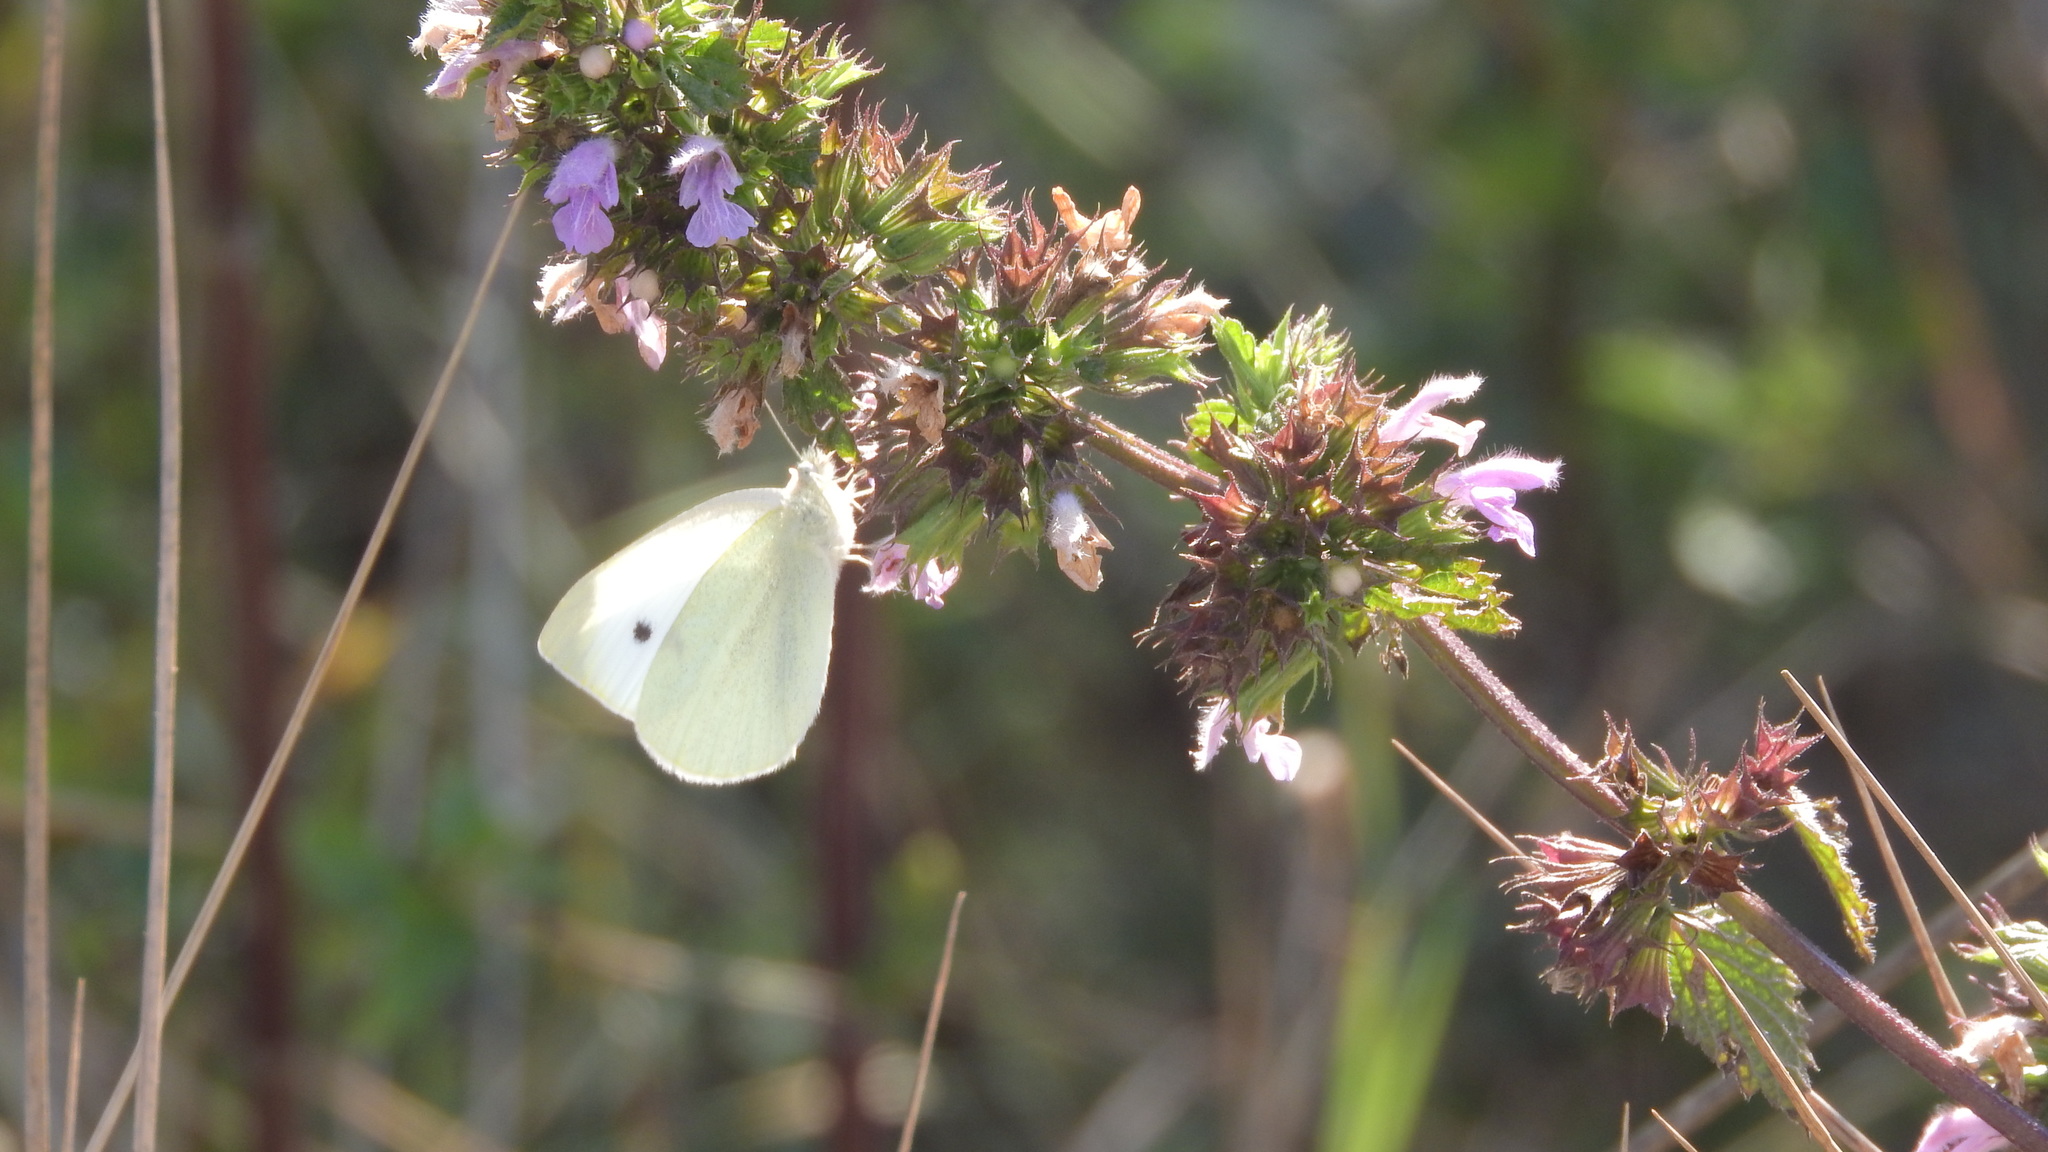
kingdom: Animalia
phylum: Arthropoda
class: Insecta
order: Lepidoptera
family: Pieridae
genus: Pieris
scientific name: Pieris rapae
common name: Small white
